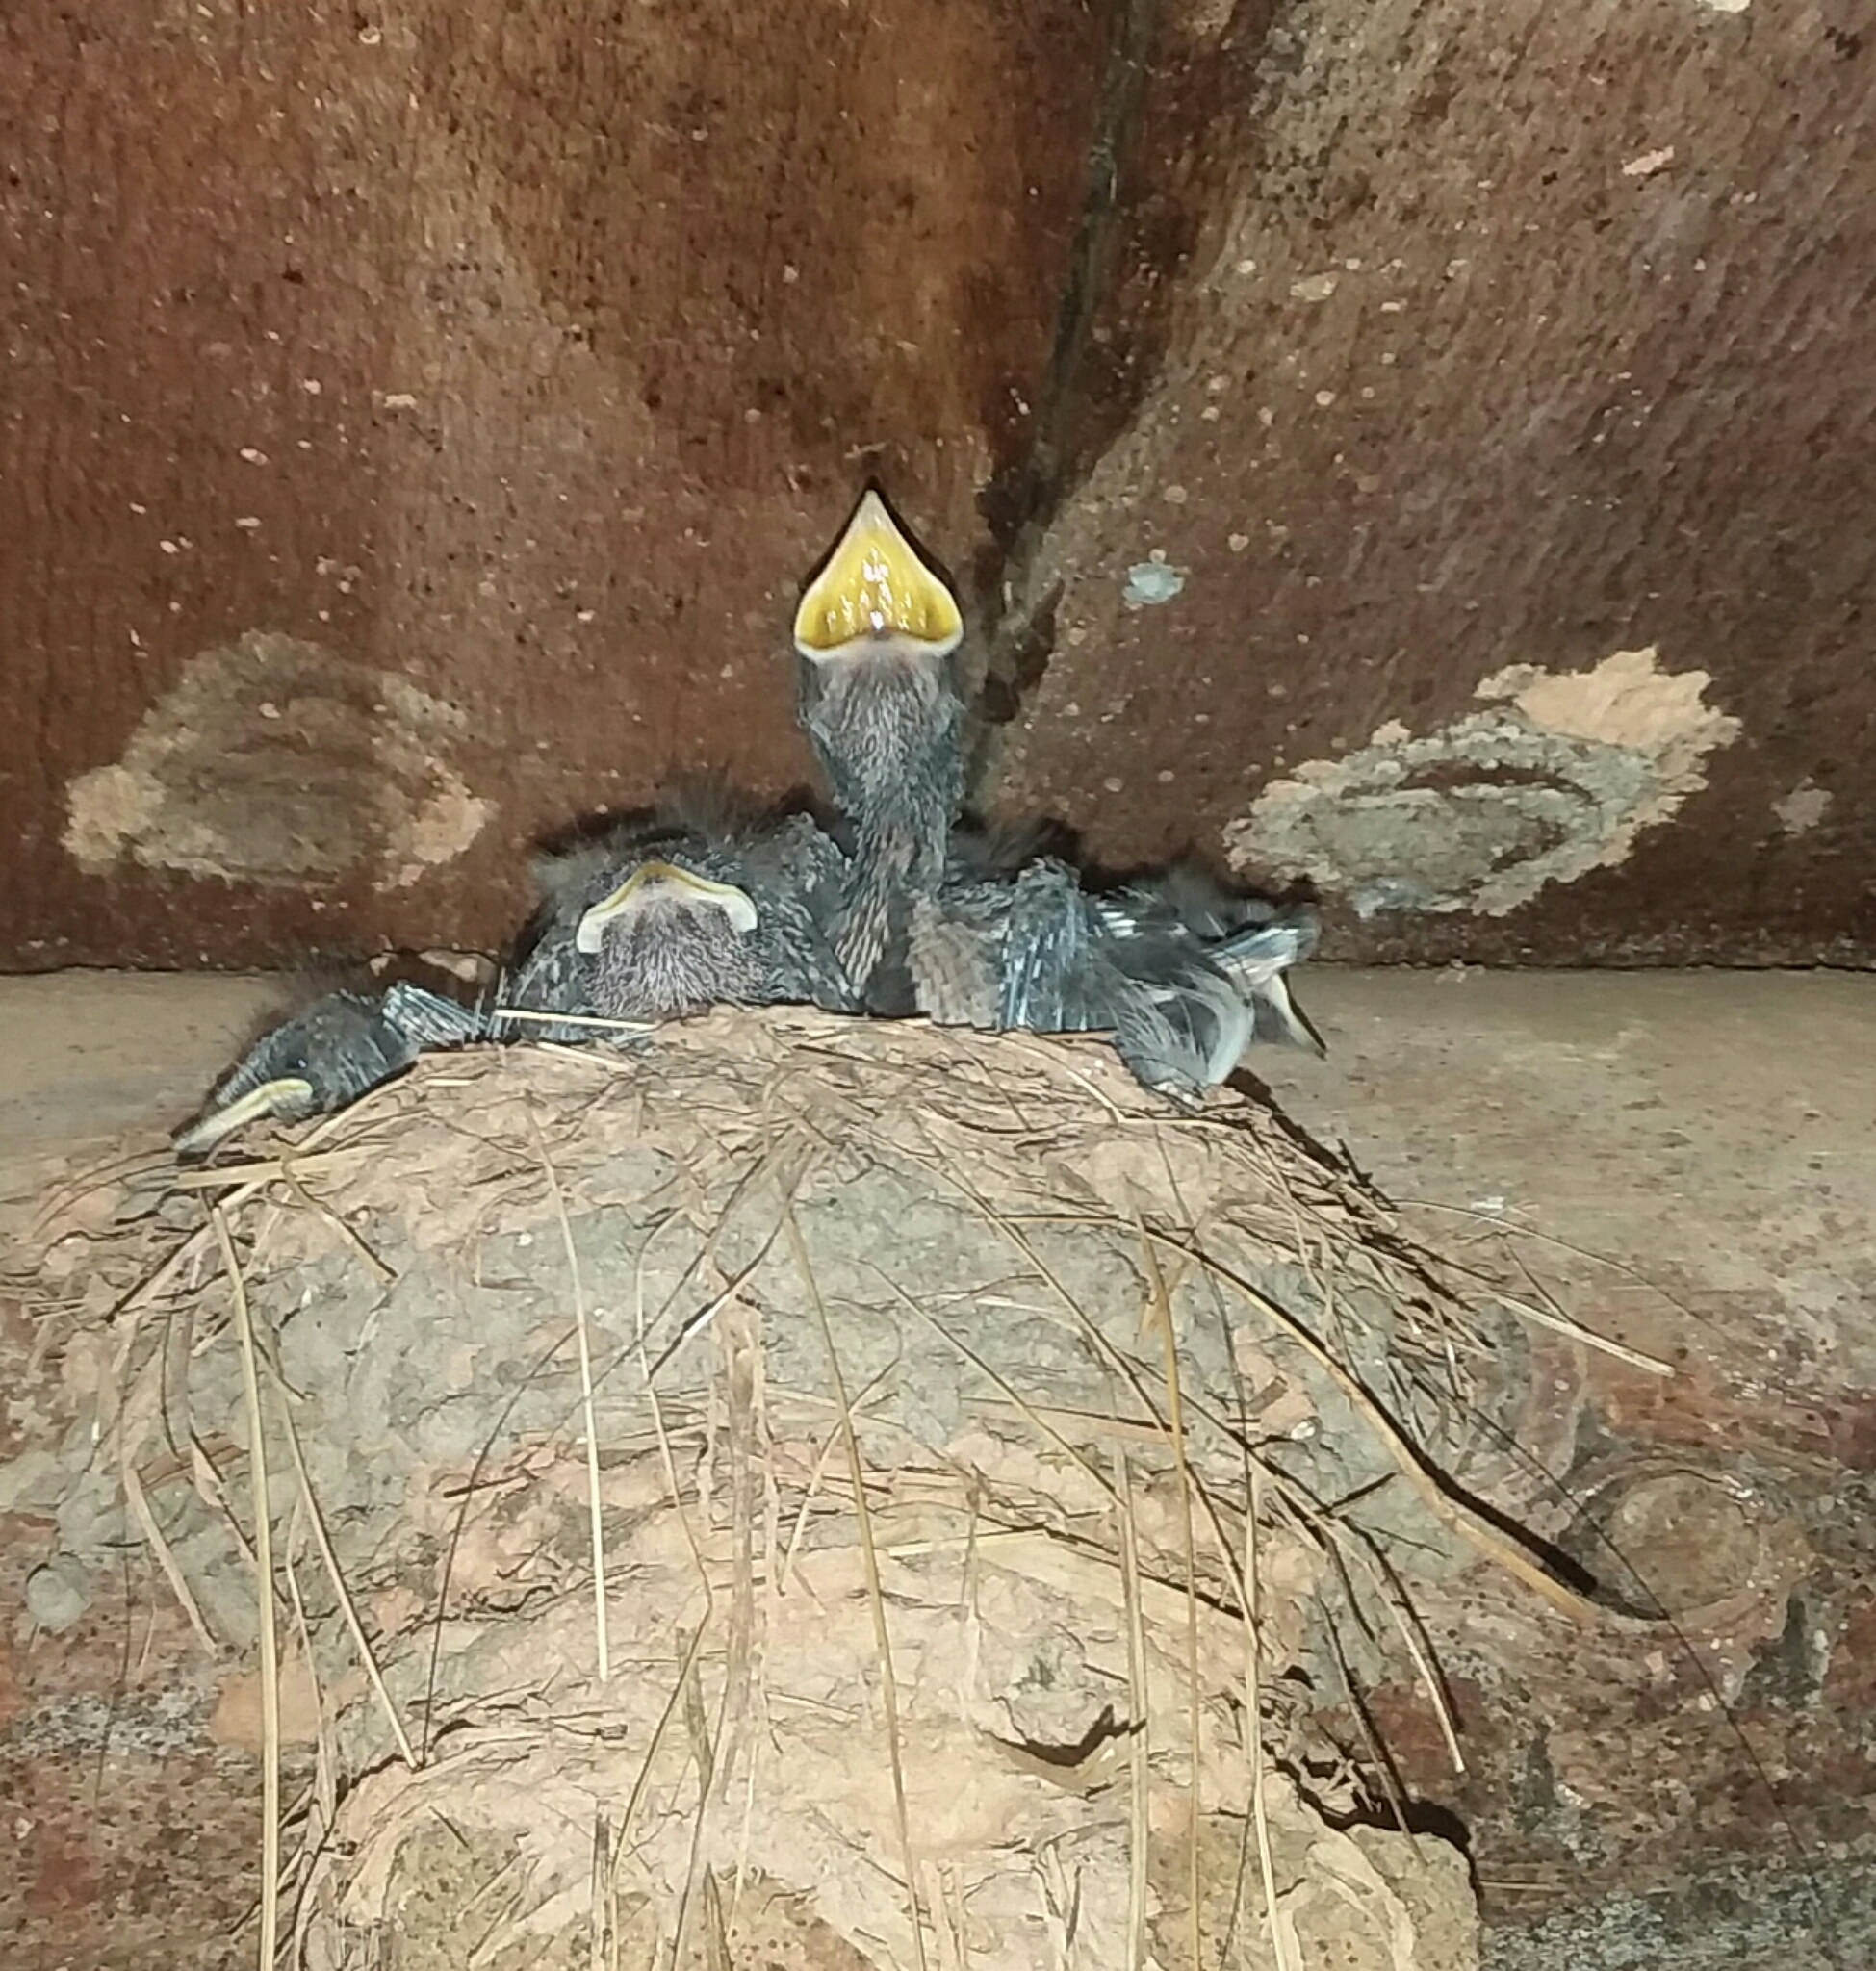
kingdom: Animalia
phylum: Chordata
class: Aves
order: Passeriformes
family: Hirundinidae
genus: Hirundo
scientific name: Hirundo rustica
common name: Barn swallow
